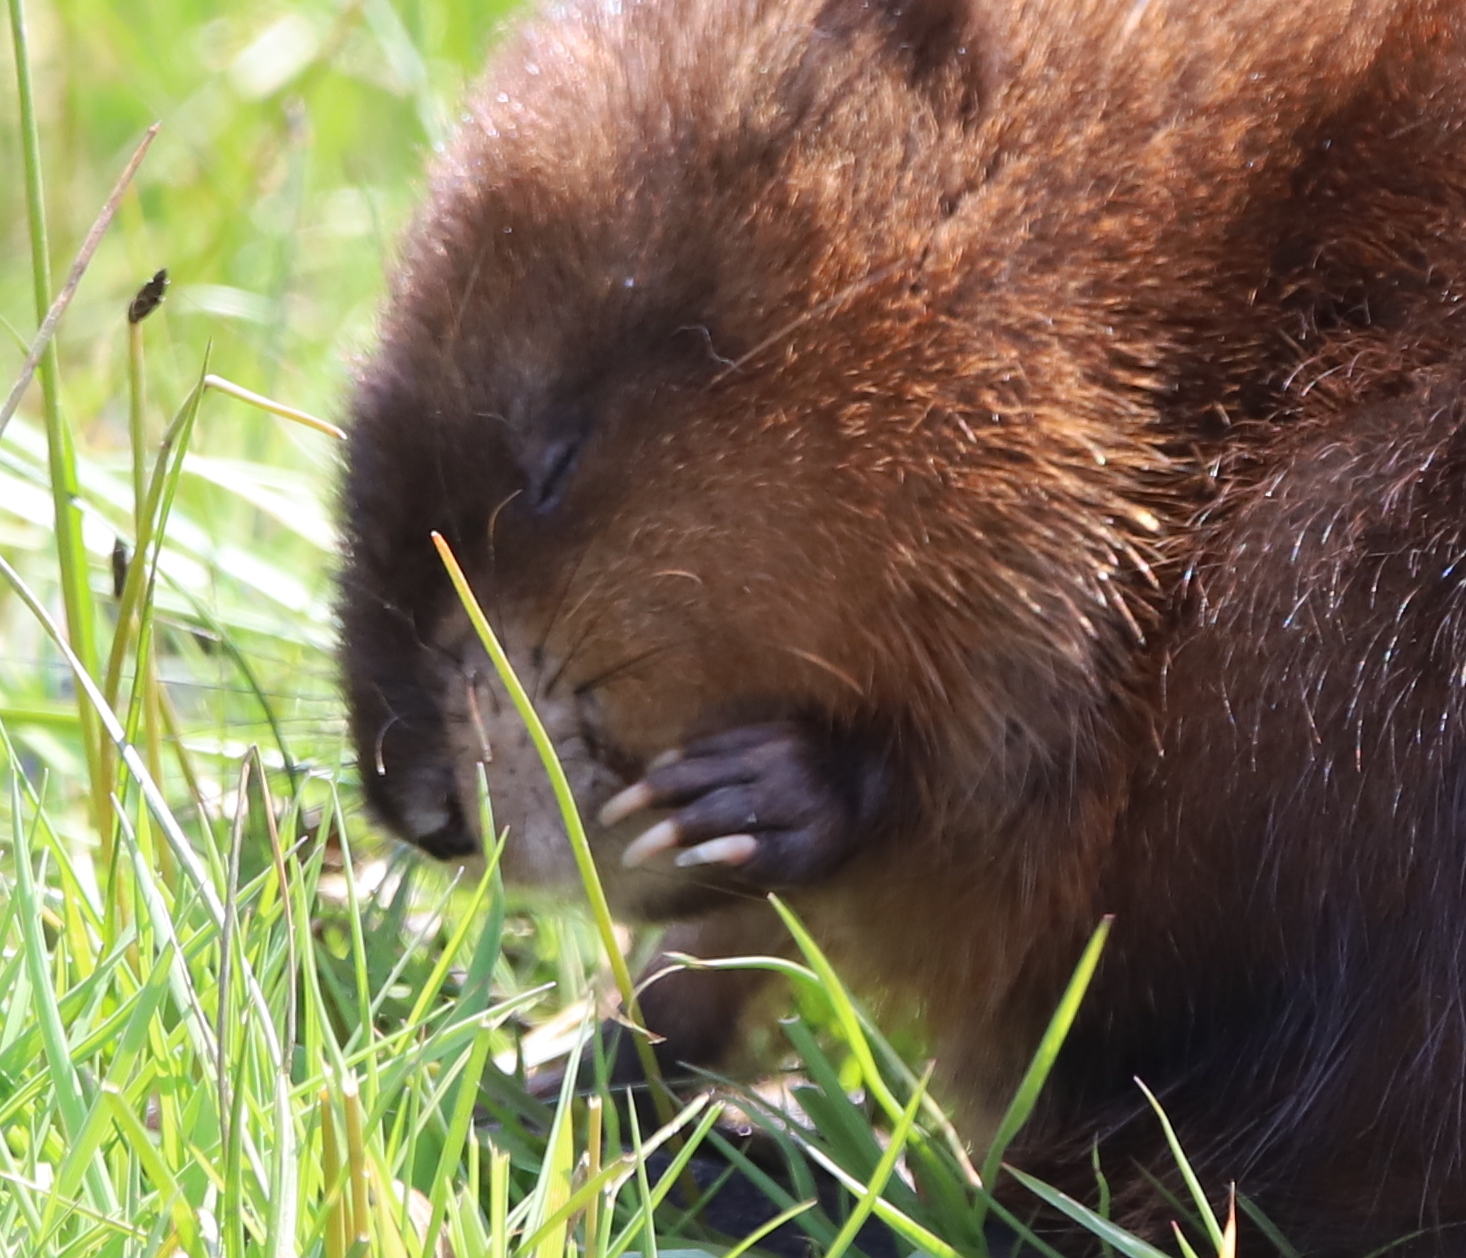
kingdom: Animalia
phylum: Chordata
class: Mammalia
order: Rodentia
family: Cricetidae
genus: Ondatra
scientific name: Ondatra zibethicus
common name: Muskrat
